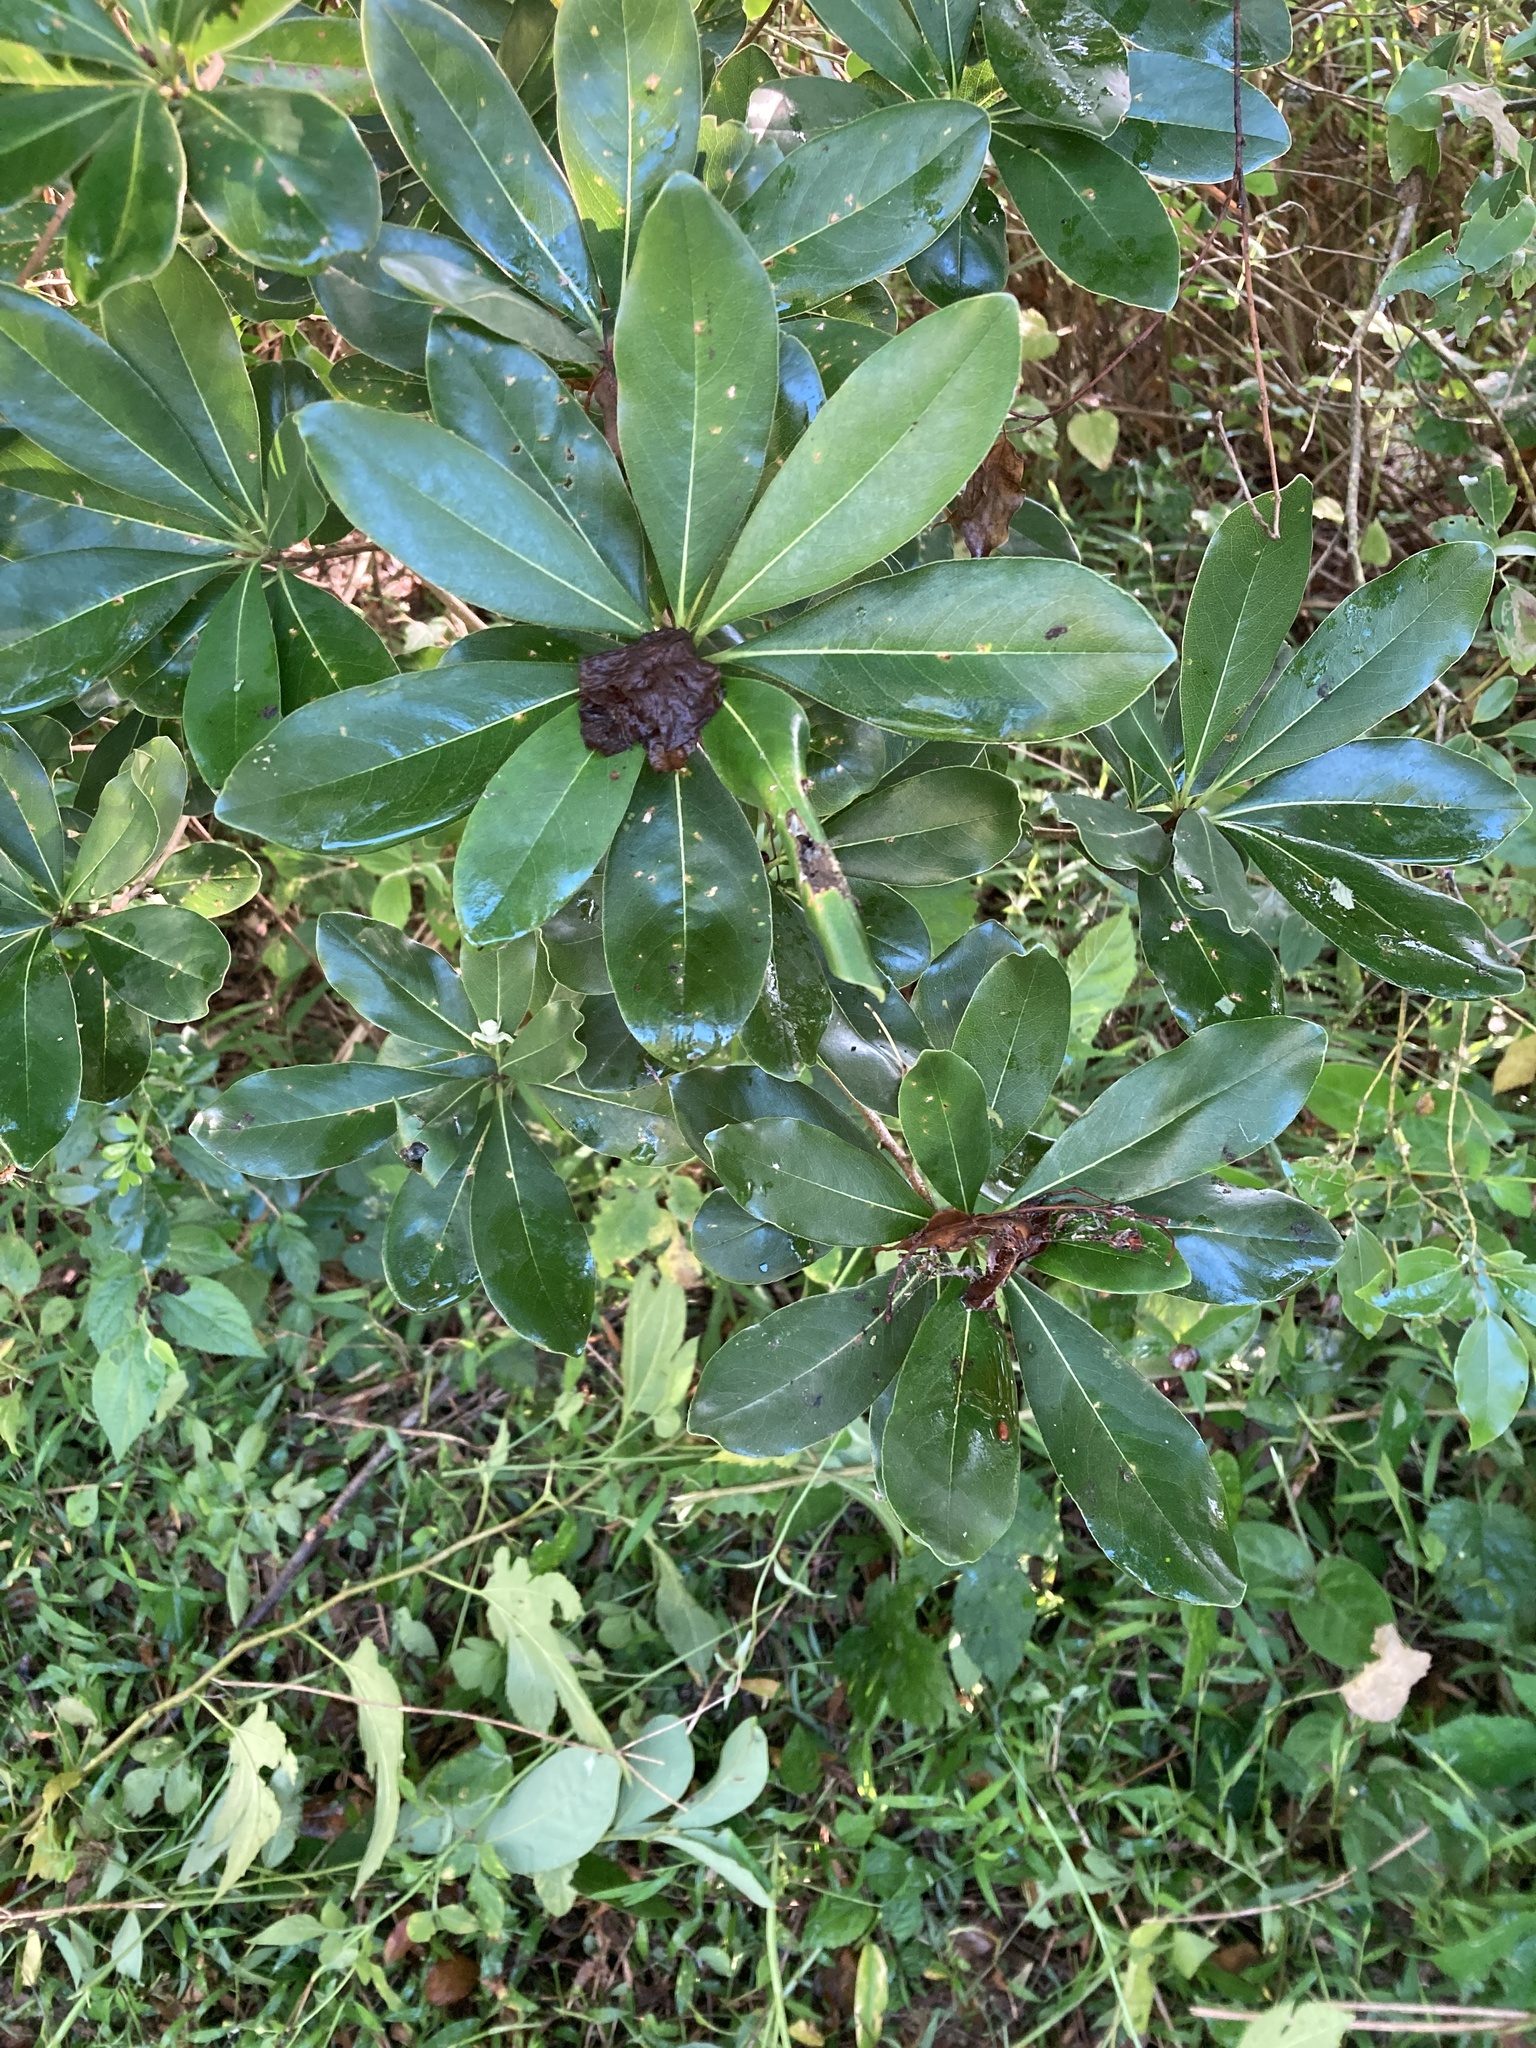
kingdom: Plantae
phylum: Tracheophyta
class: Magnoliopsida
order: Apiales
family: Pittosporaceae
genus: Pittosporum
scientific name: Pittosporum tobira
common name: Japanese cheesewood
